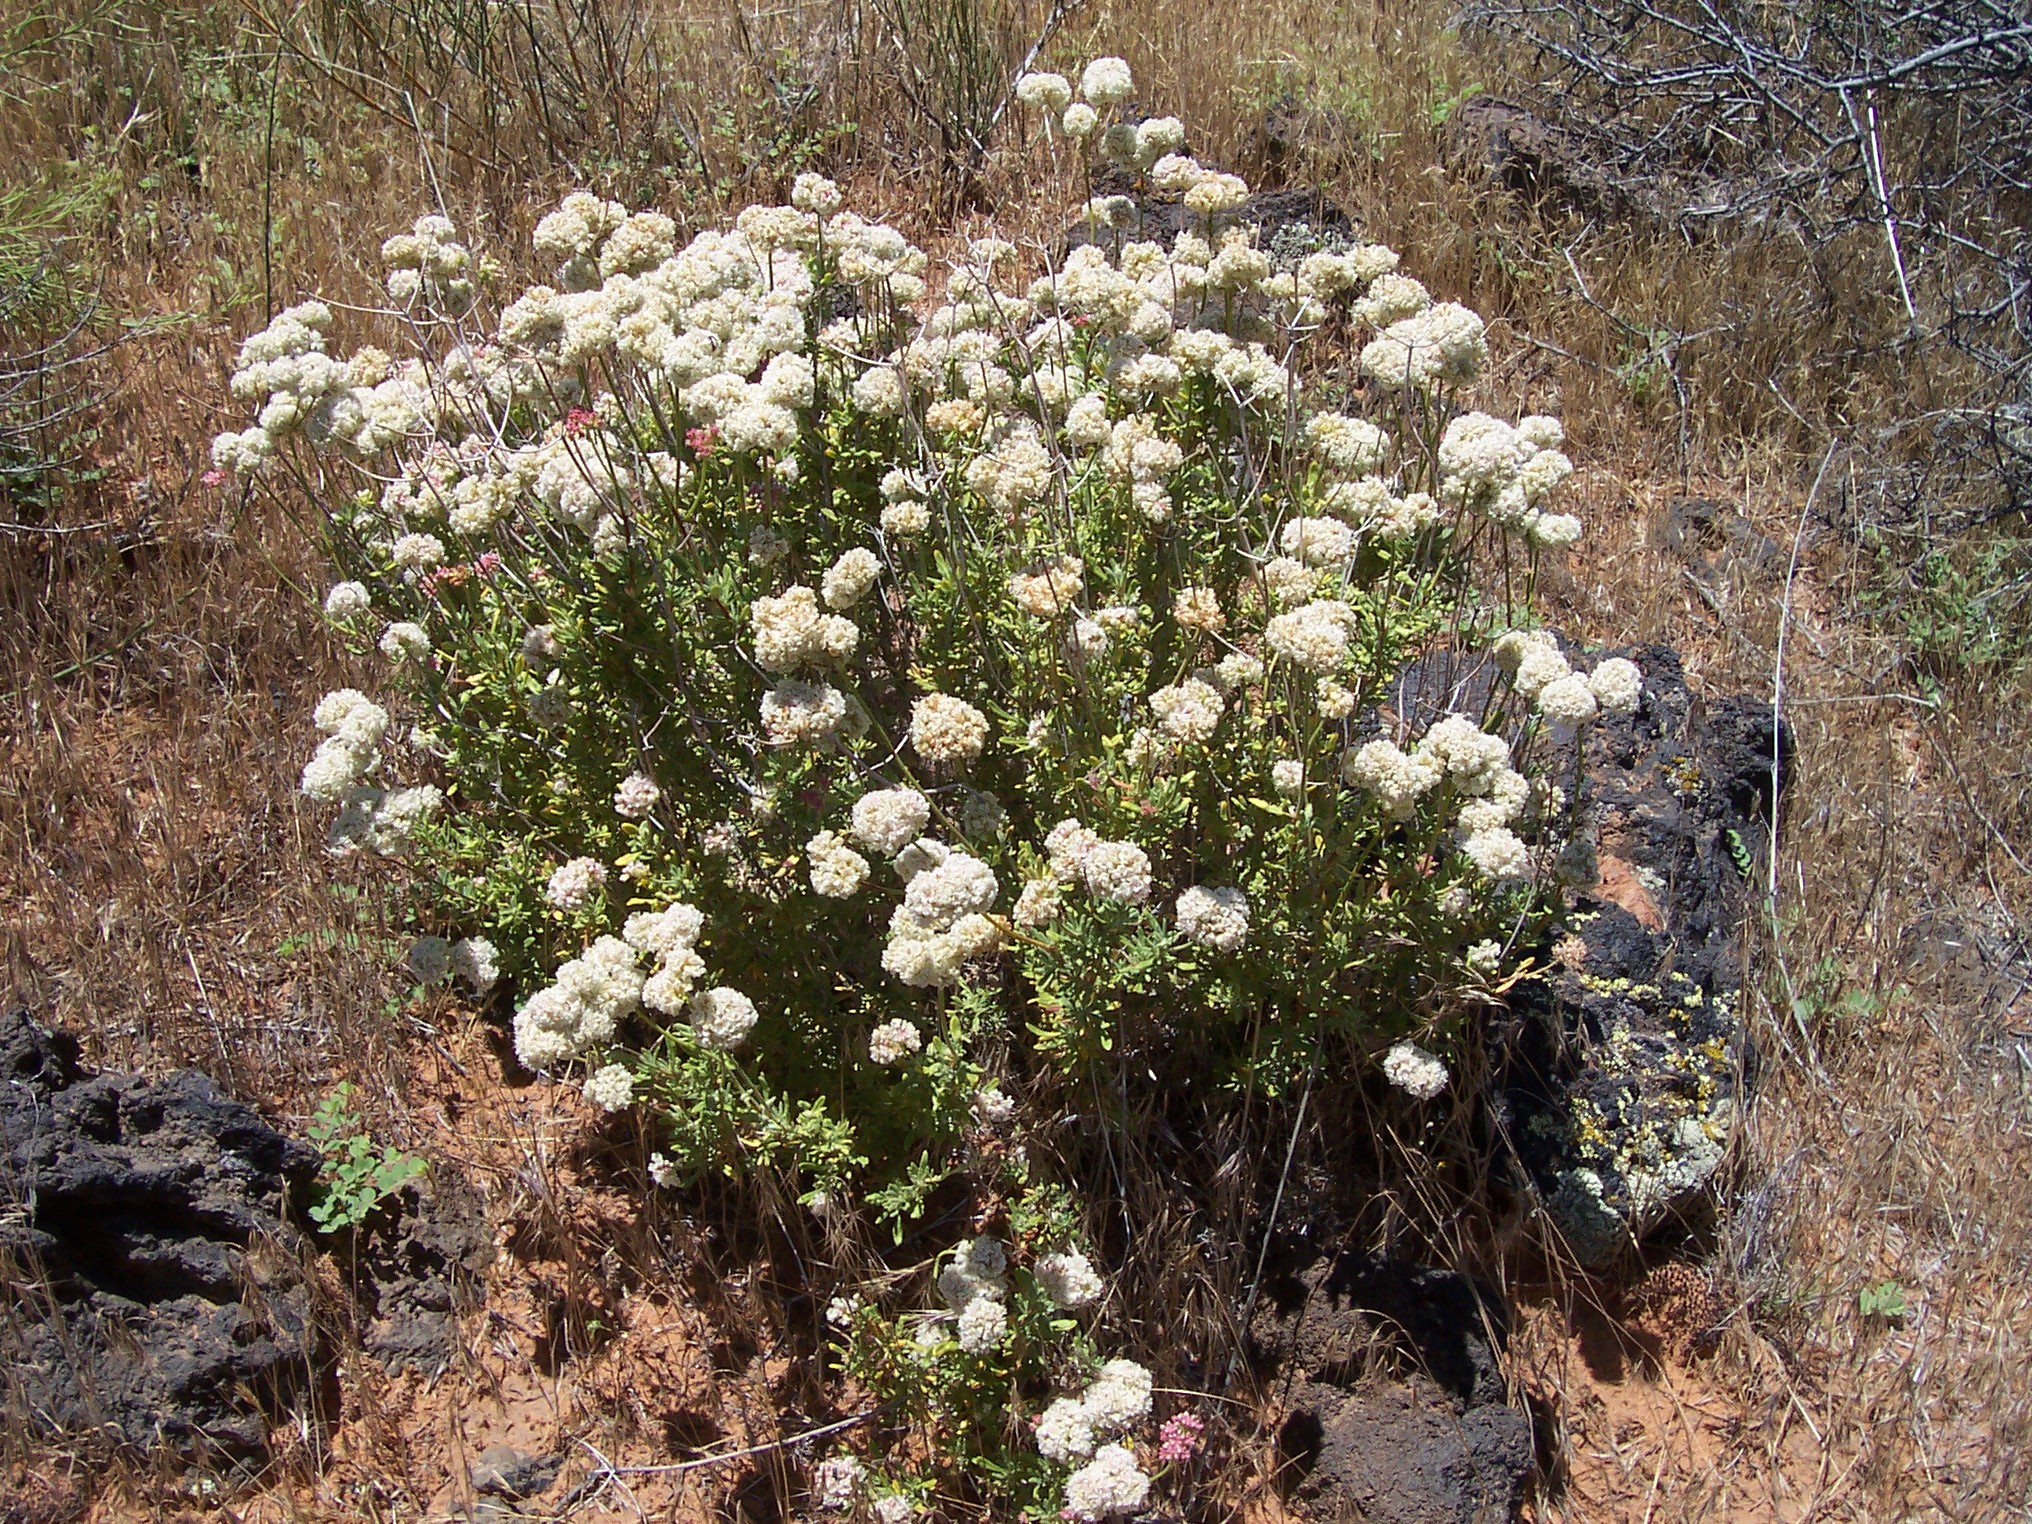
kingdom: Plantae
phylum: Tracheophyta
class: Magnoliopsida
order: Caryophyllales
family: Polygonaceae
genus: Eriogonum
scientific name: Eriogonum fasciculatum
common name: California wild buckwheat
